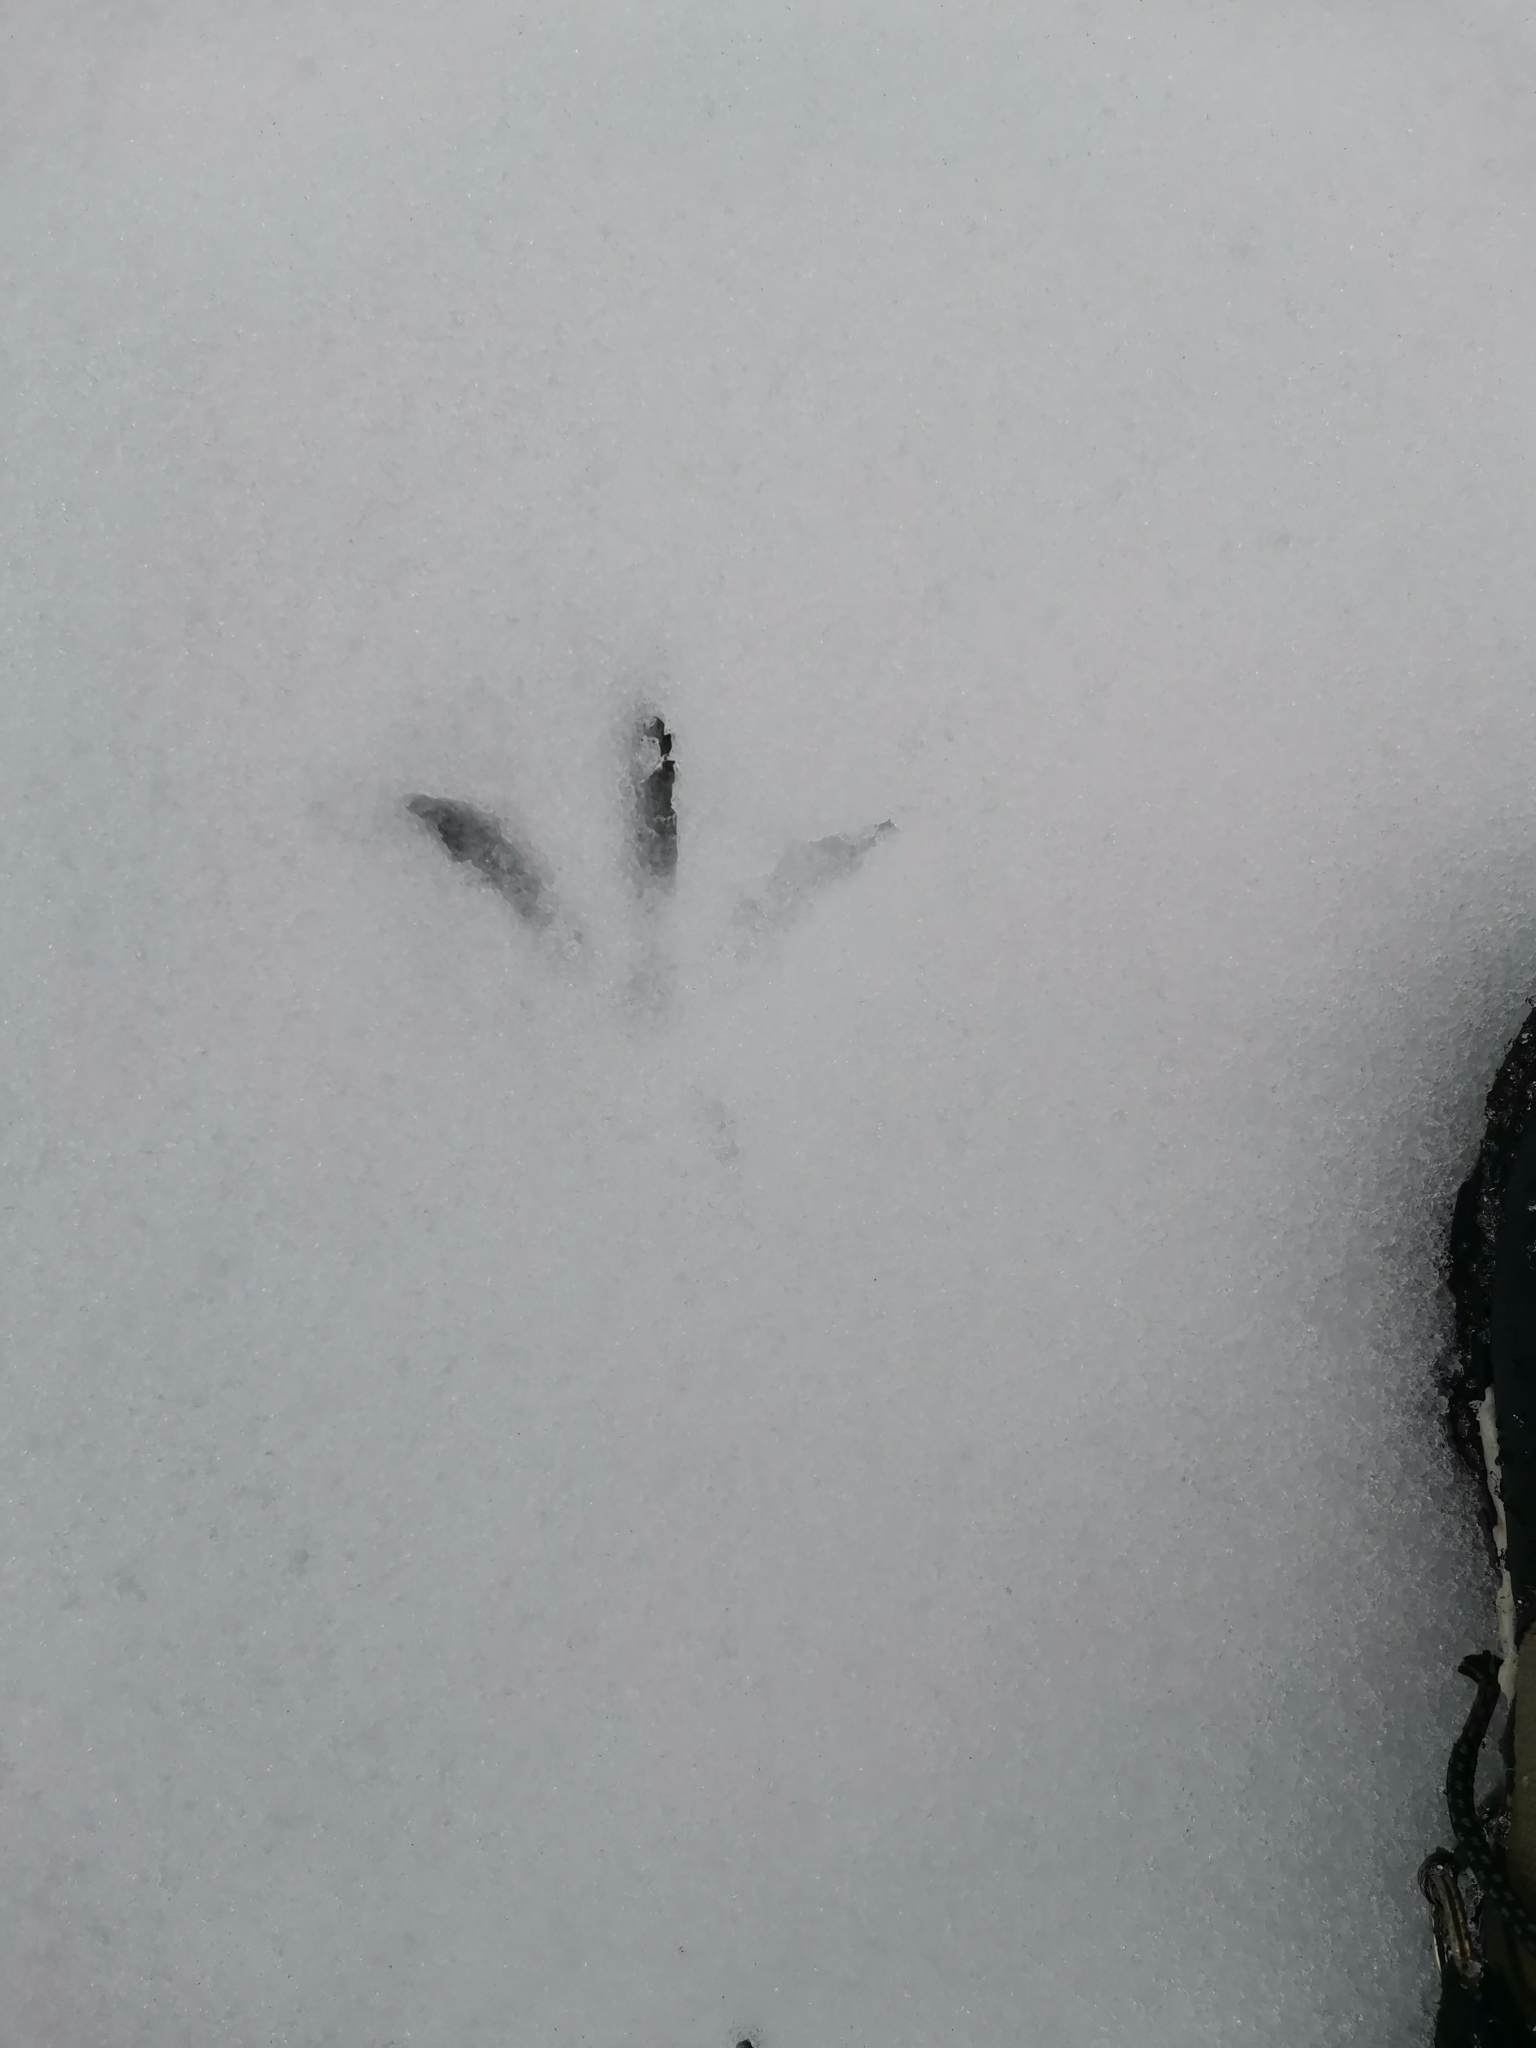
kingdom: Animalia
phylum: Chordata
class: Aves
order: Gruiformes
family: Rallidae
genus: Gallirallus
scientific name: Gallirallus australis
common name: Weka
